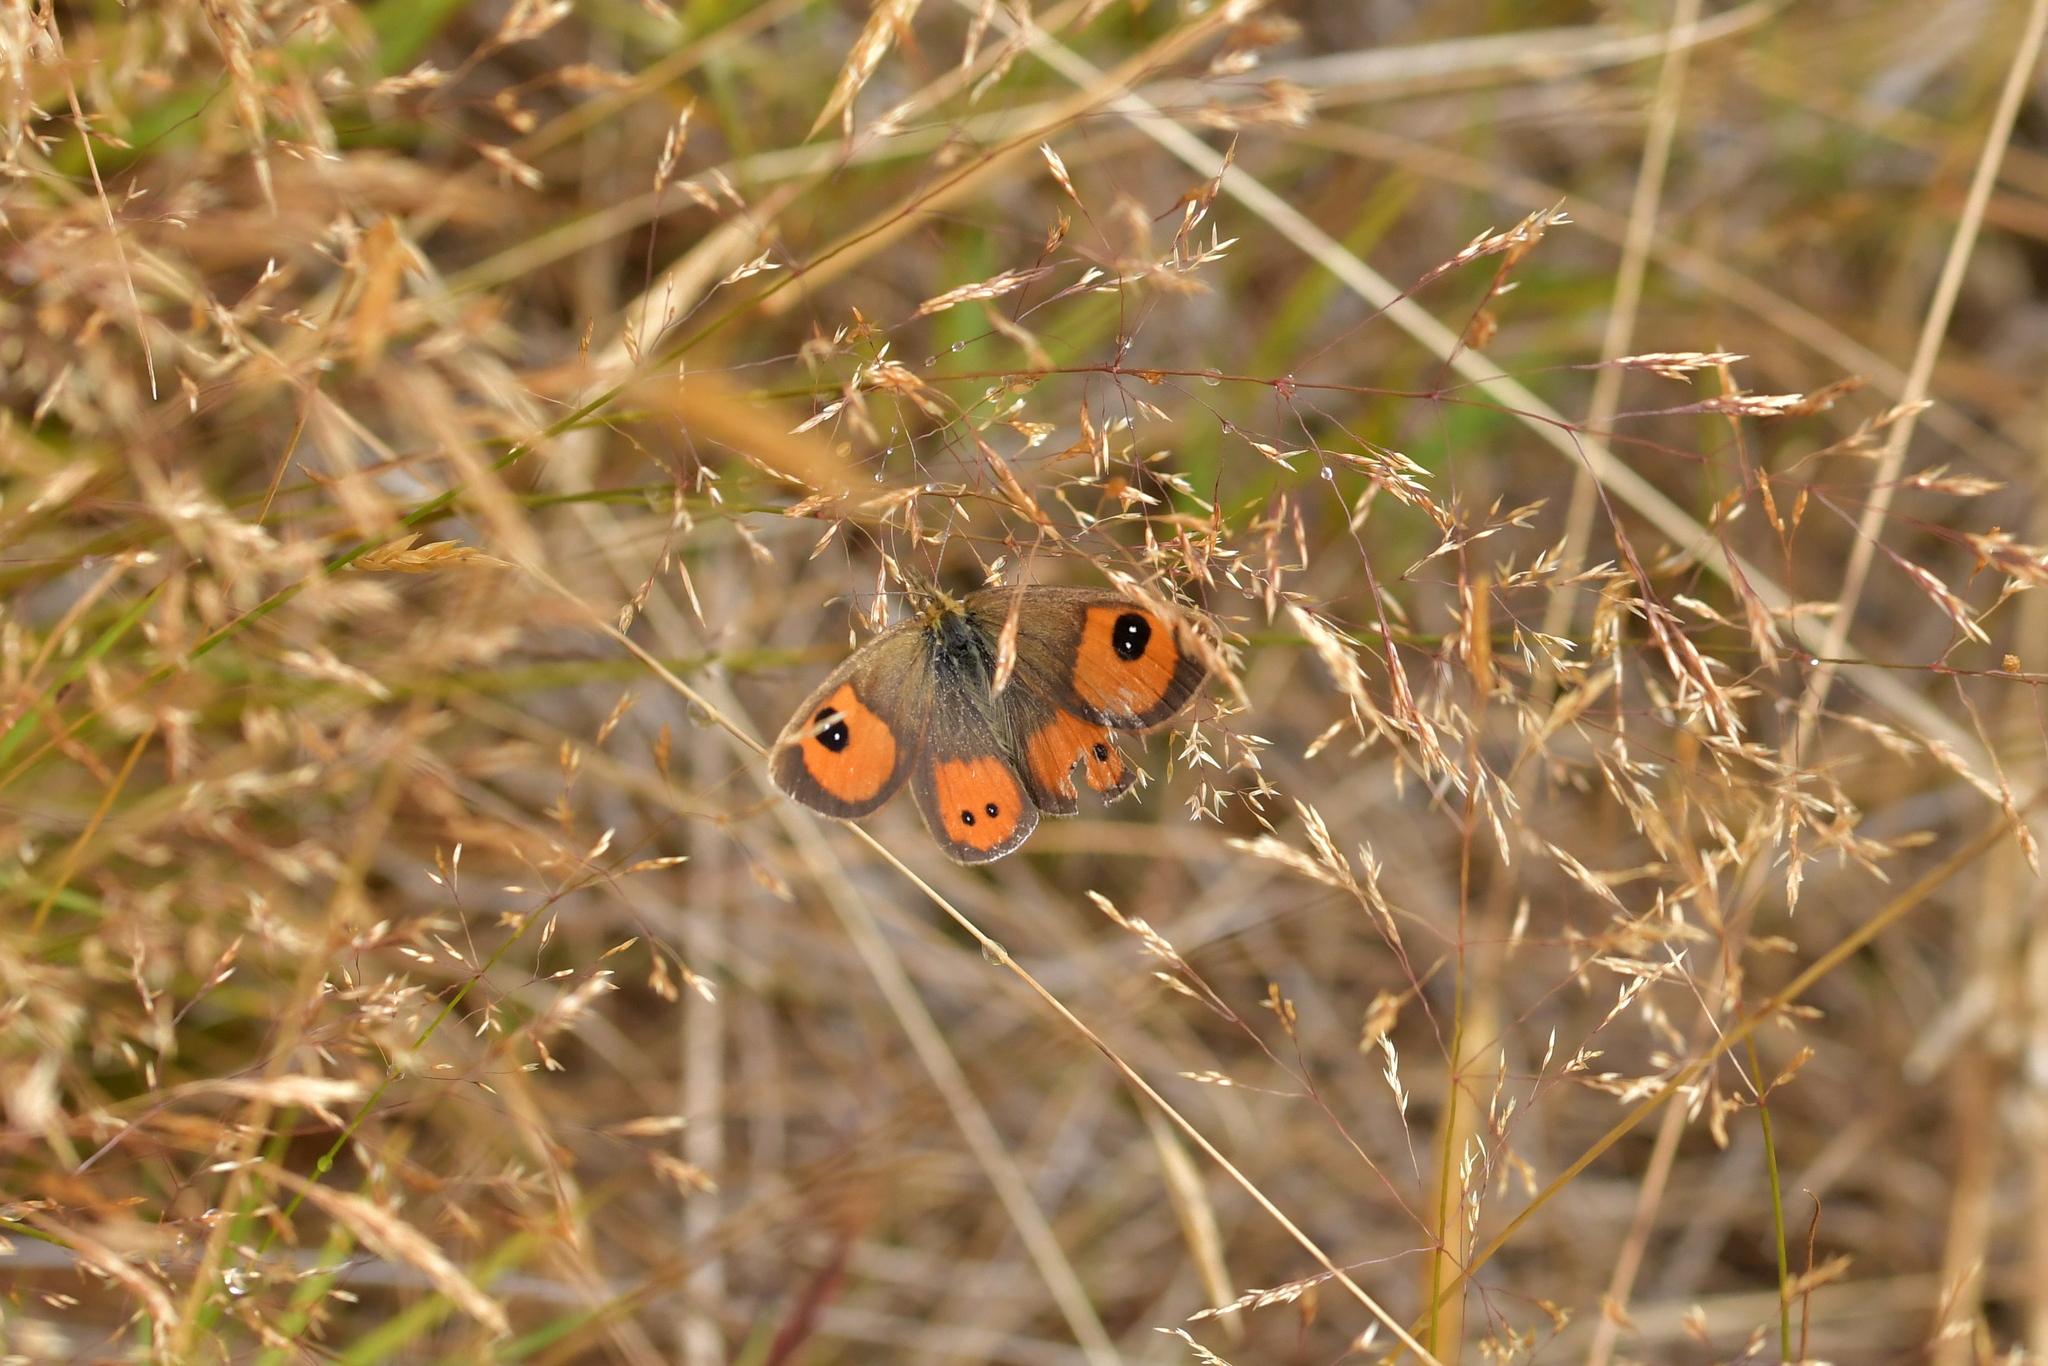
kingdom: Animalia
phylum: Arthropoda
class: Insecta
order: Lepidoptera
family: Nymphalidae
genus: Argyrophenga
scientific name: Argyrophenga antipodum
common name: Common tussock butterfly
